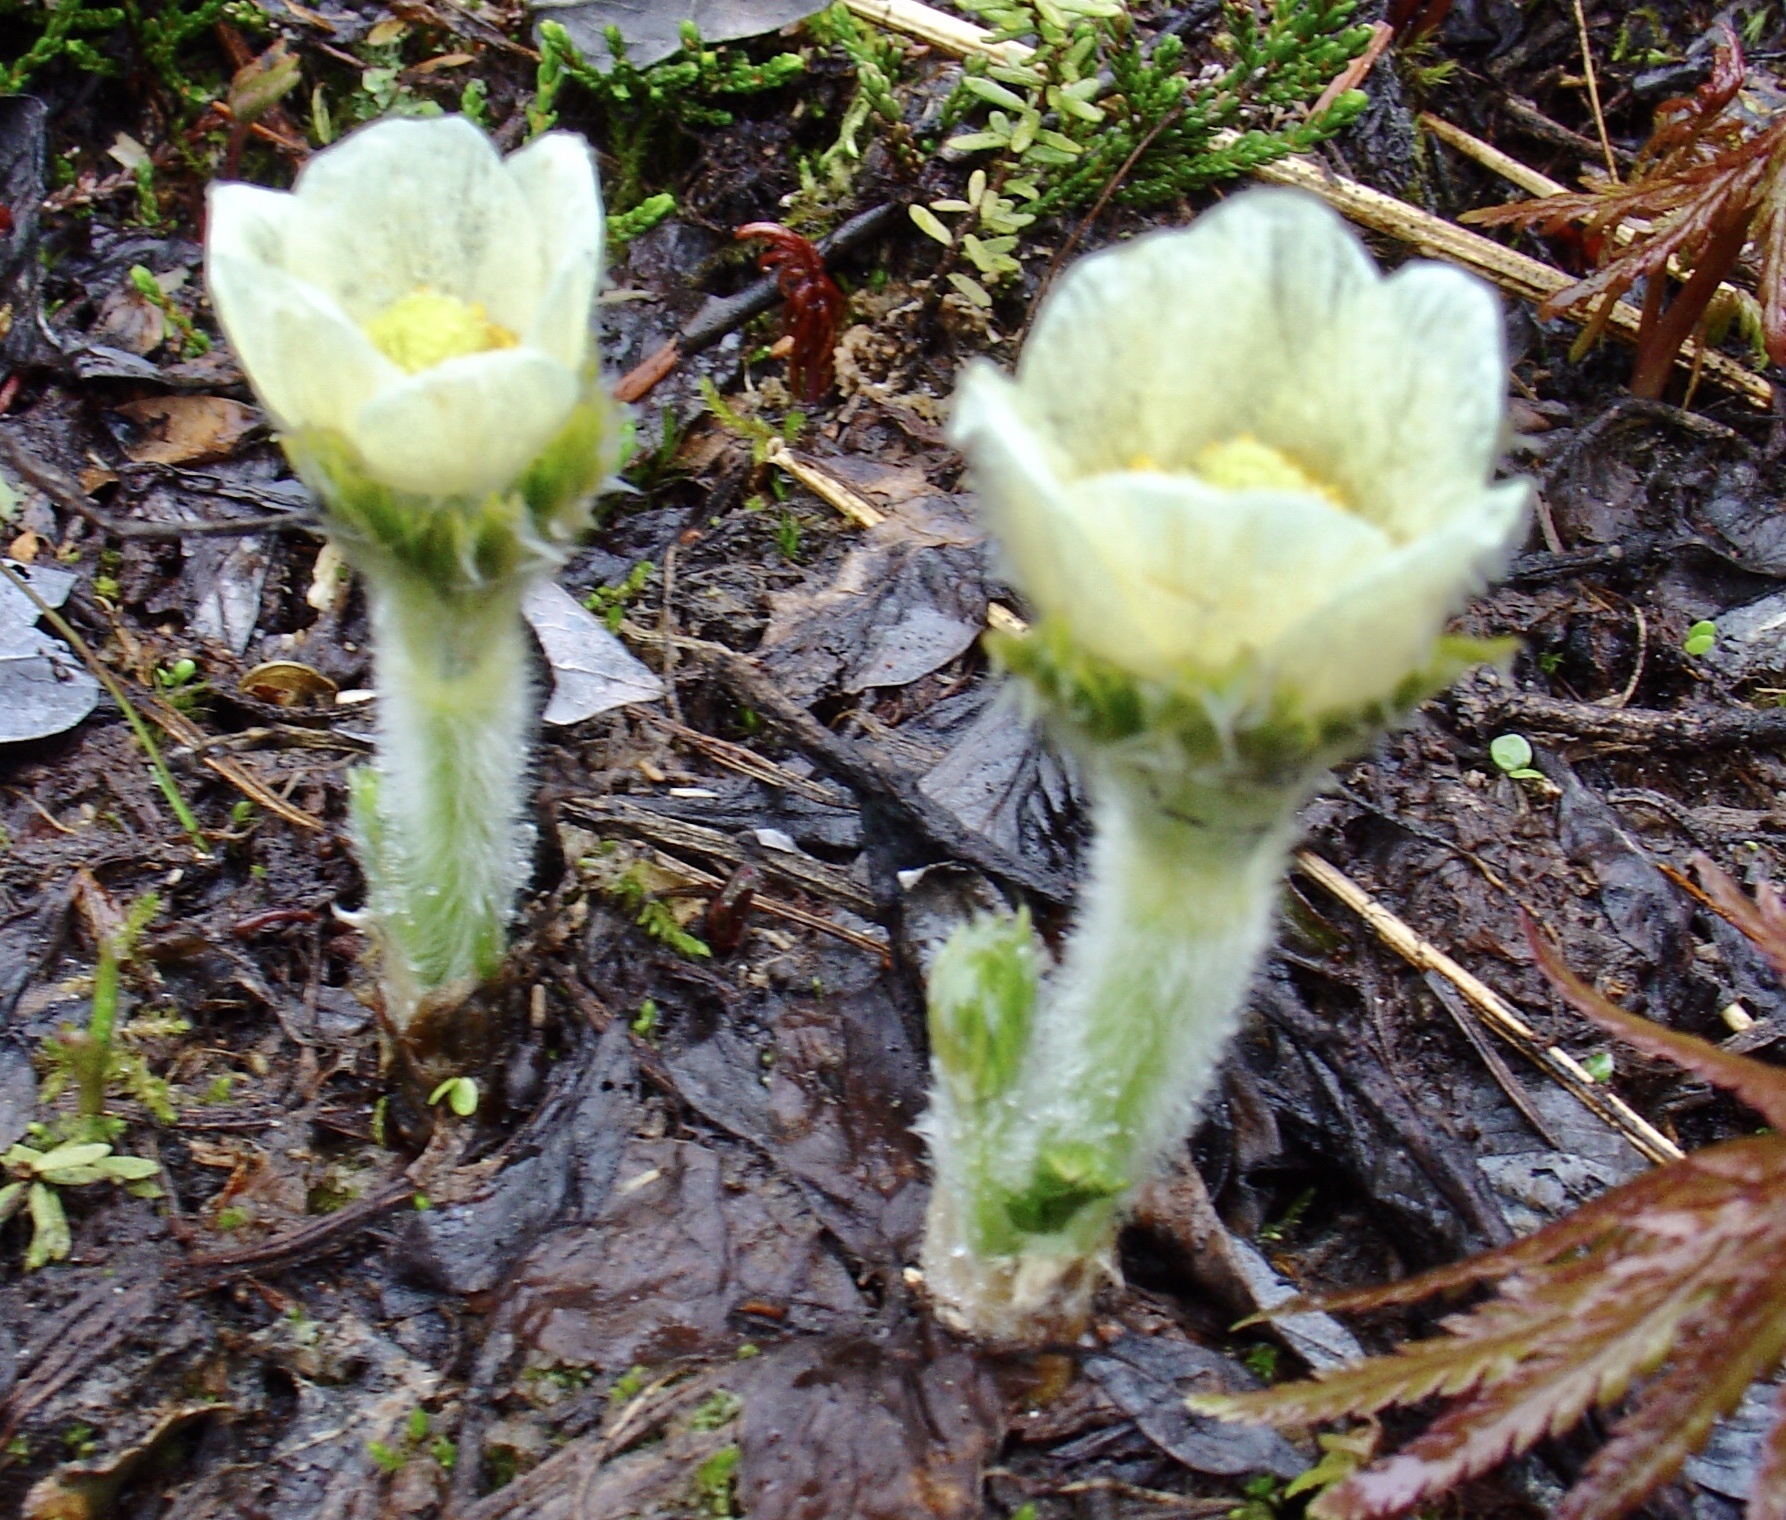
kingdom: Plantae
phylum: Tracheophyta
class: Magnoliopsida
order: Ranunculales
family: Ranunculaceae
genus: Pulsatilla
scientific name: Pulsatilla occidentalis
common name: Mountain pasqueflower
